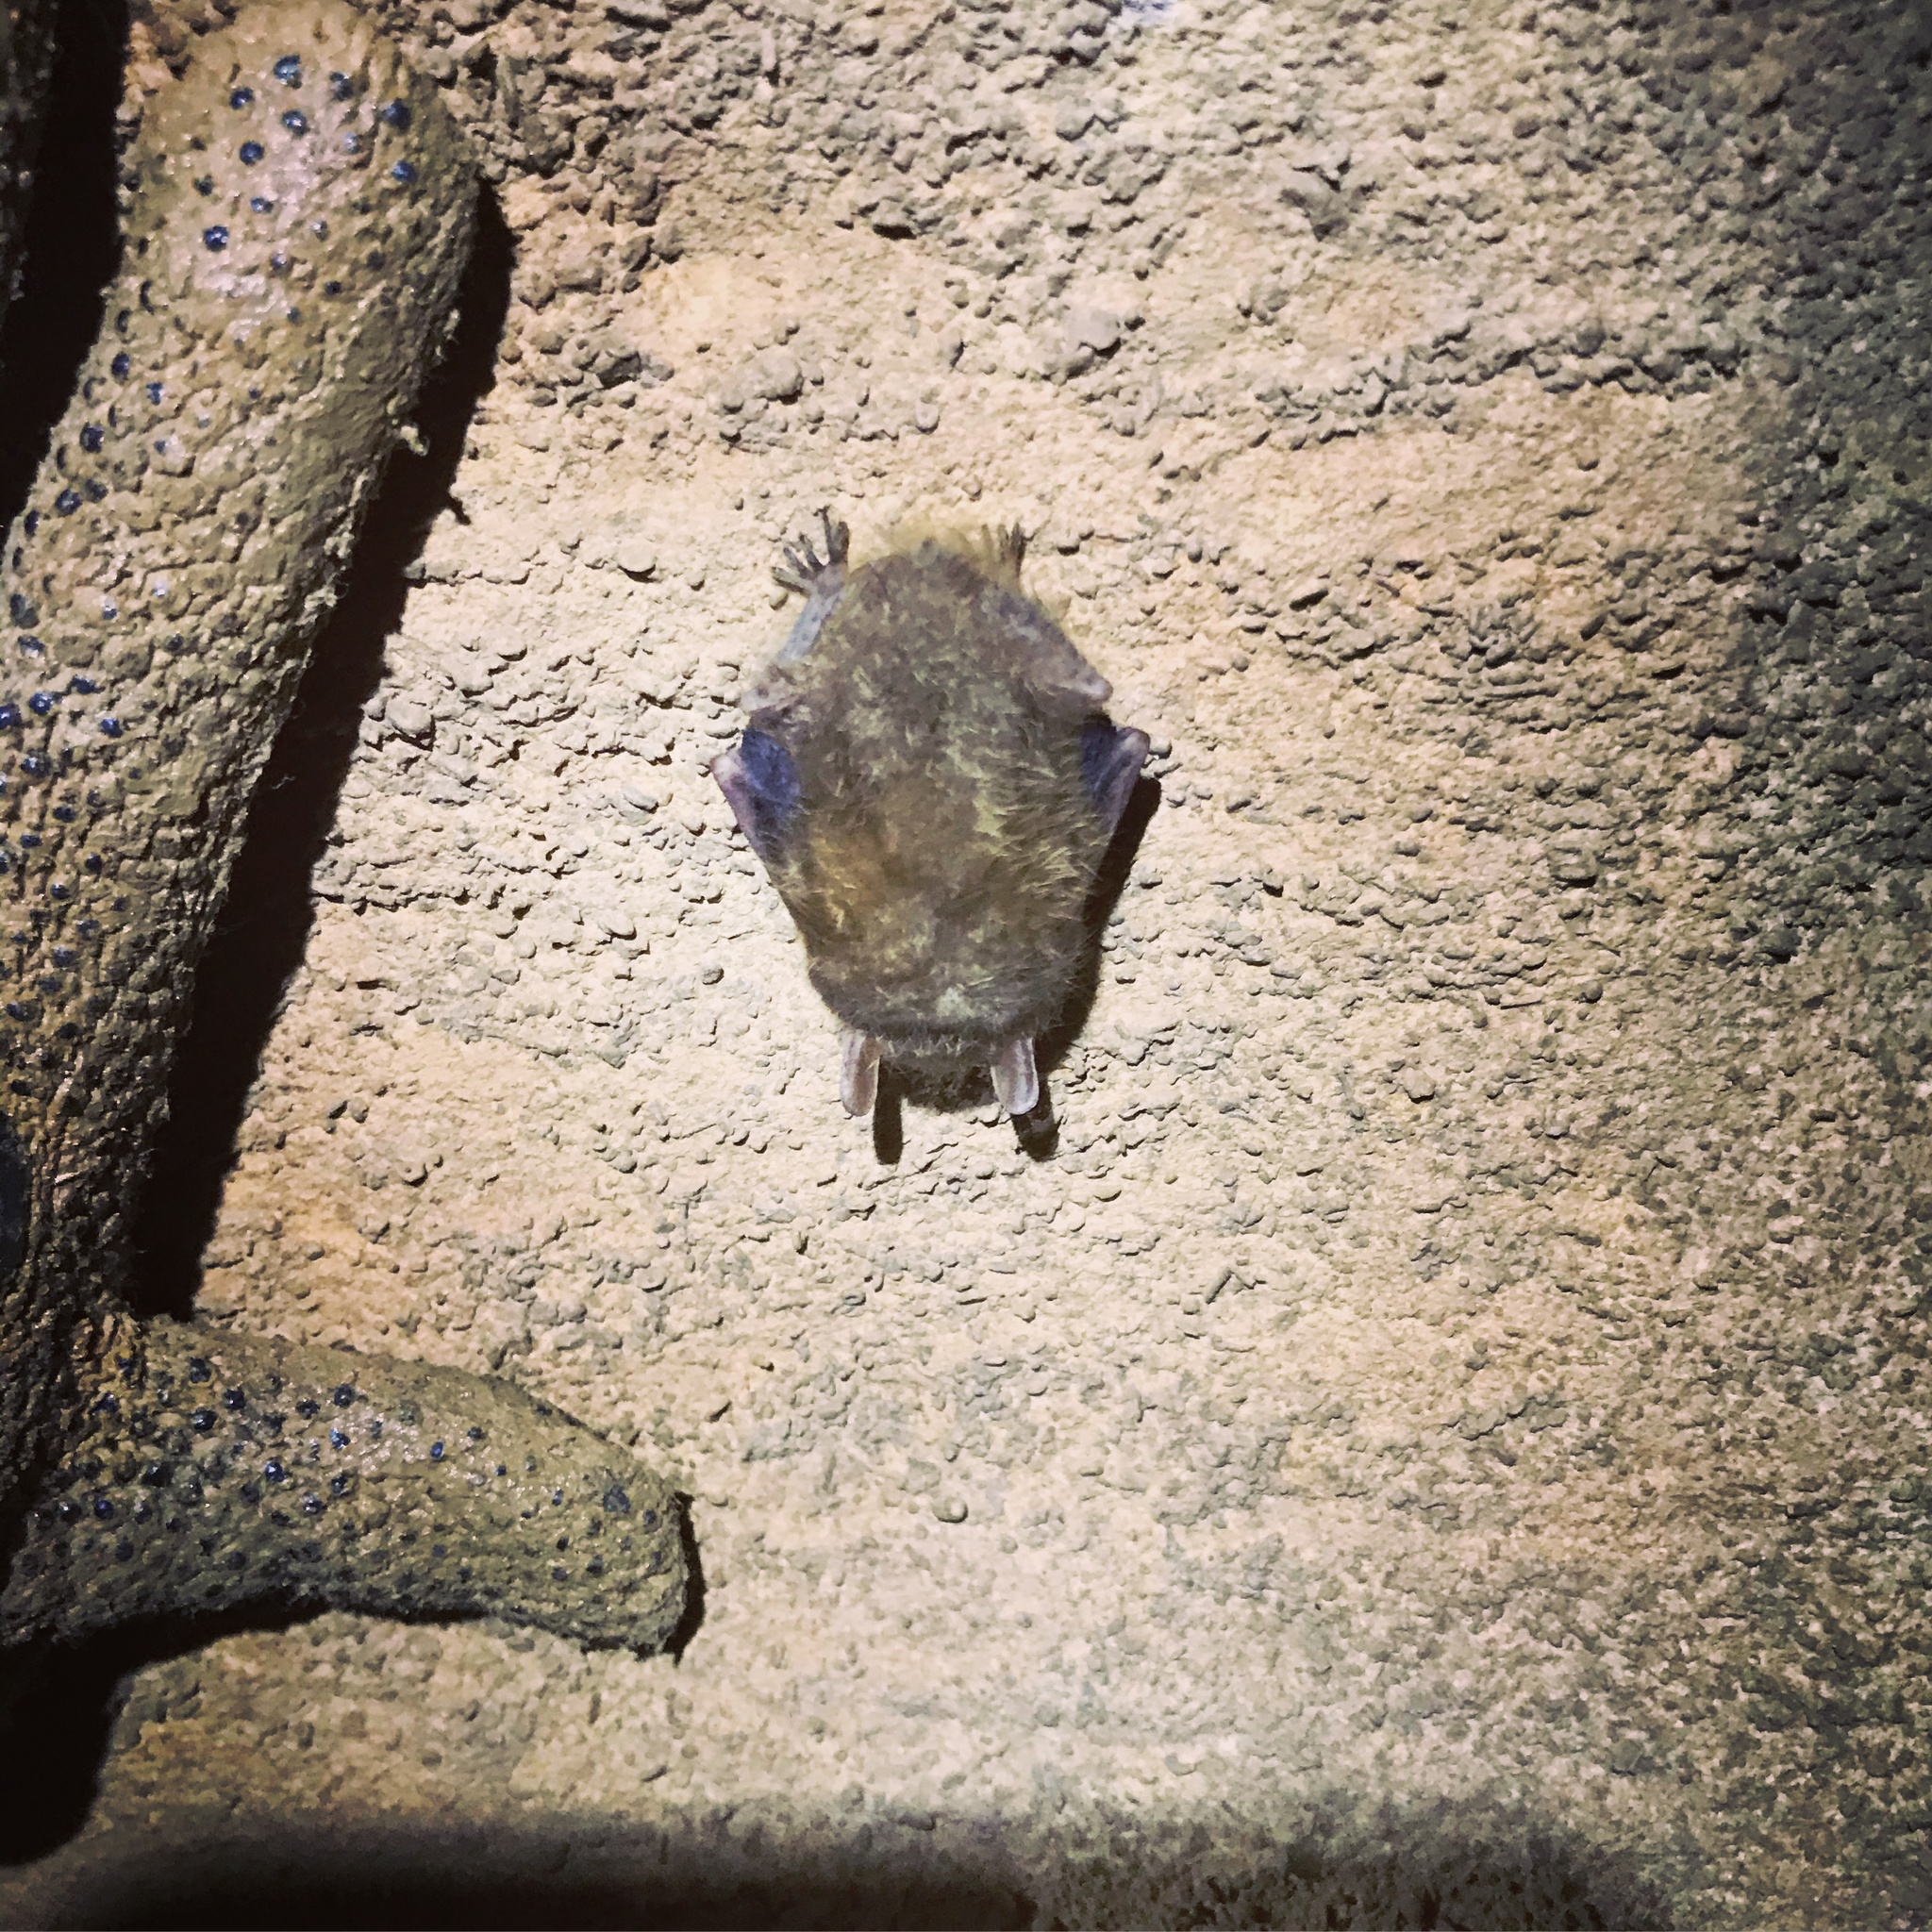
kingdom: Animalia
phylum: Chordata
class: Mammalia
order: Chiroptera
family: Vespertilionidae
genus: Perimyotis
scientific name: Perimyotis subflavus
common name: Eastern pipistrelle
